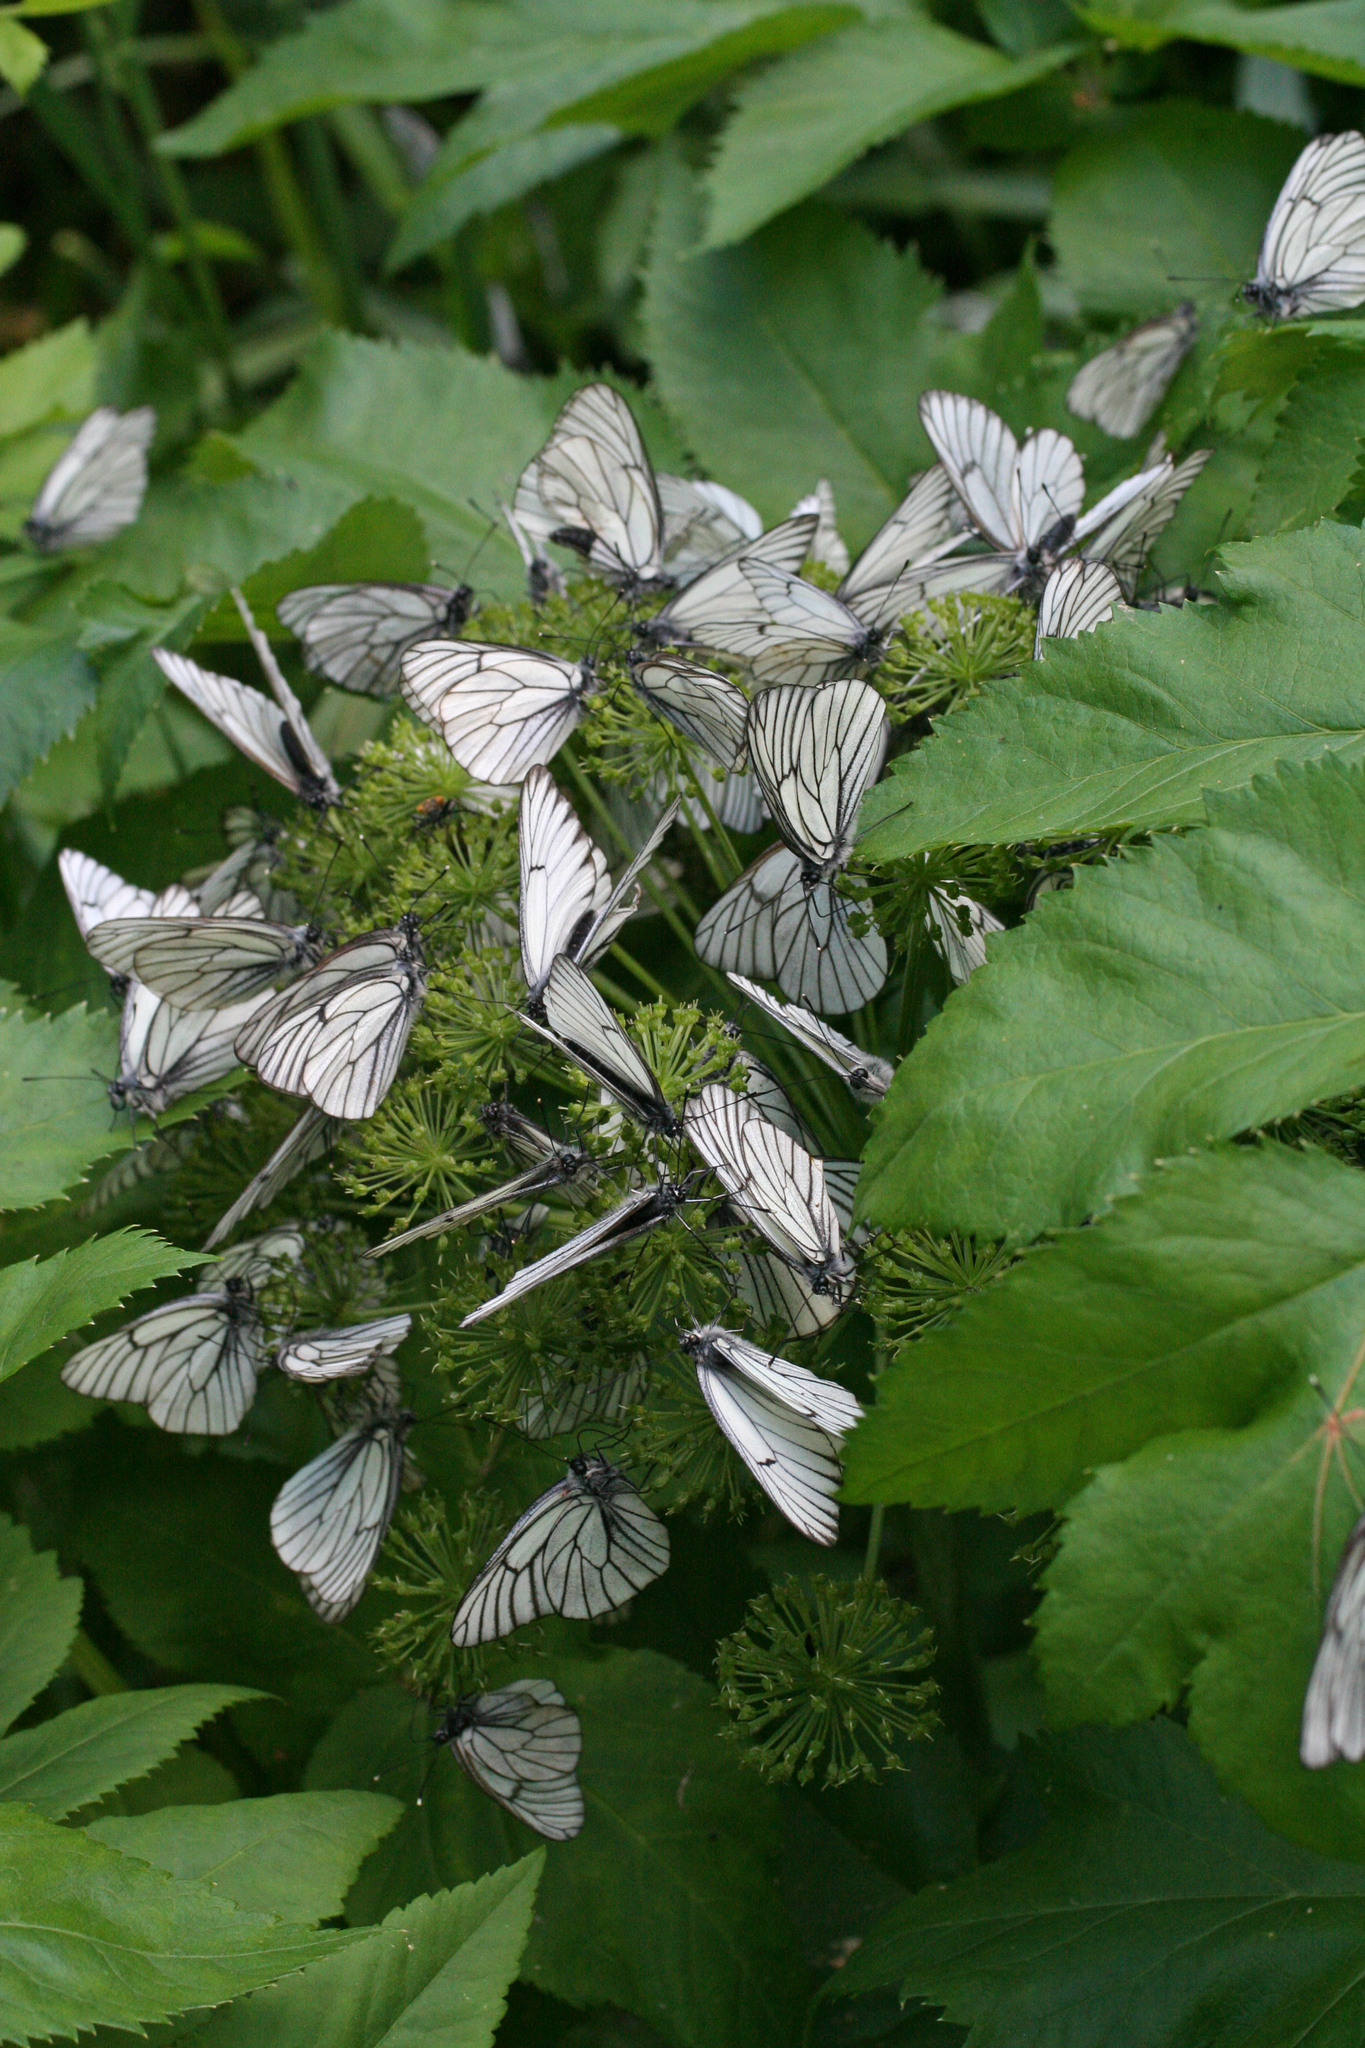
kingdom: Animalia
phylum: Arthropoda
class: Insecta
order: Lepidoptera
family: Pieridae
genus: Aporia
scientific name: Aporia crataegi
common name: Black-veined white
